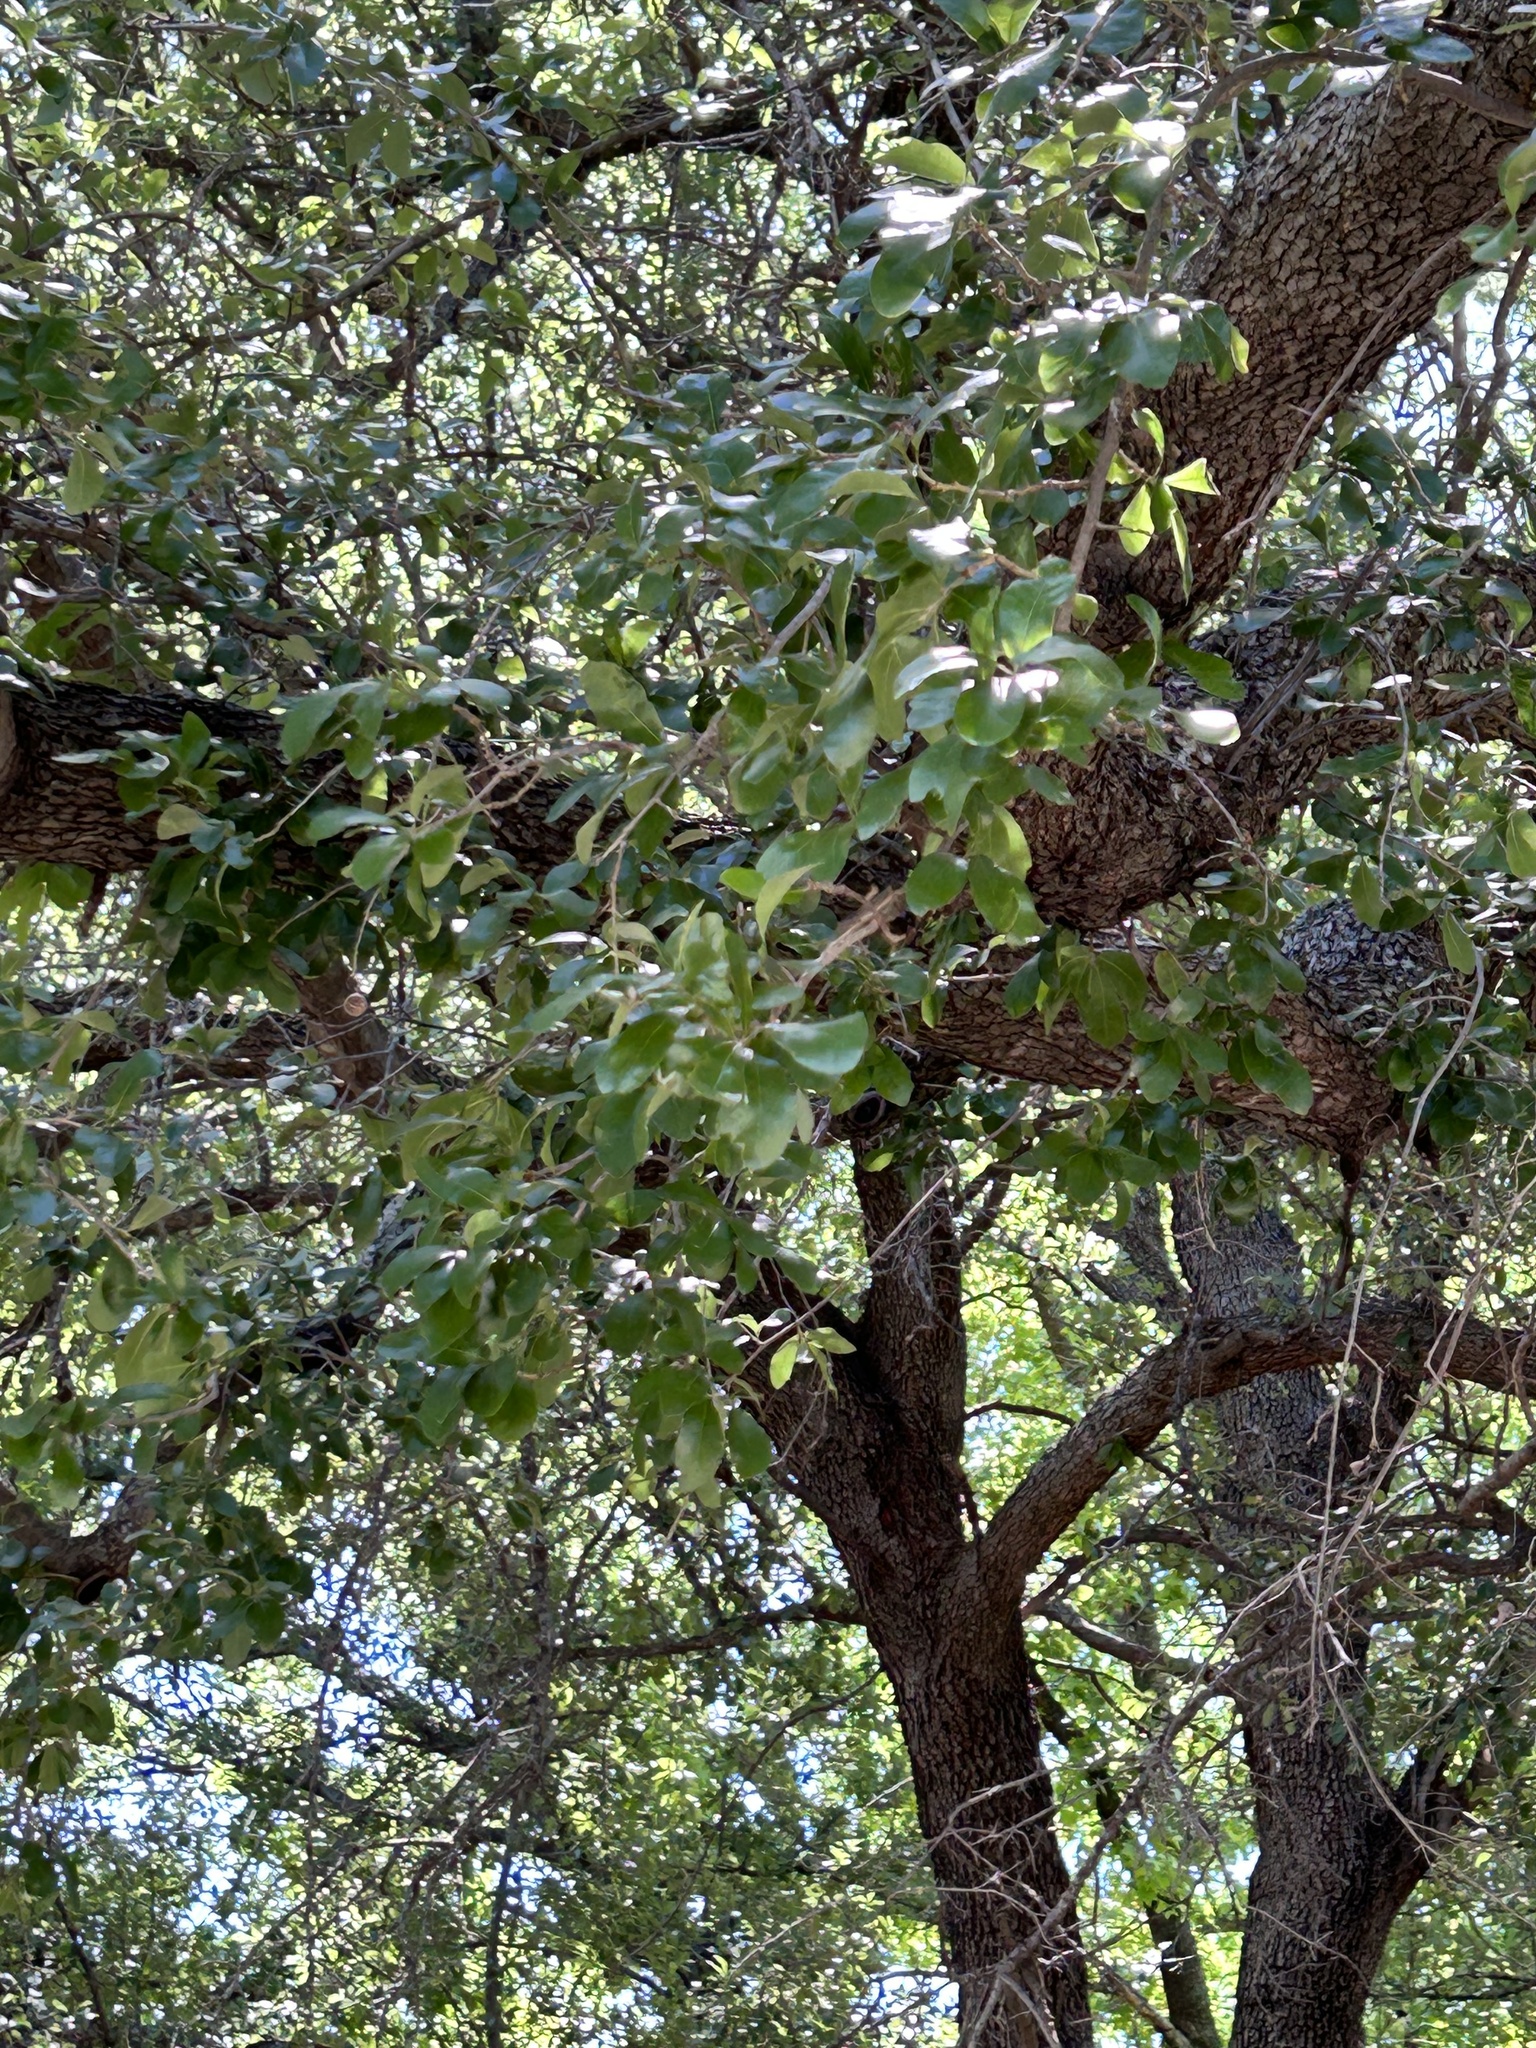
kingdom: Plantae
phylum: Tracheophyta
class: Magnoliopsida
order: Fagales
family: Fagaceae
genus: Quercus
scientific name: Quercus virginiana
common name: Southern live oak
